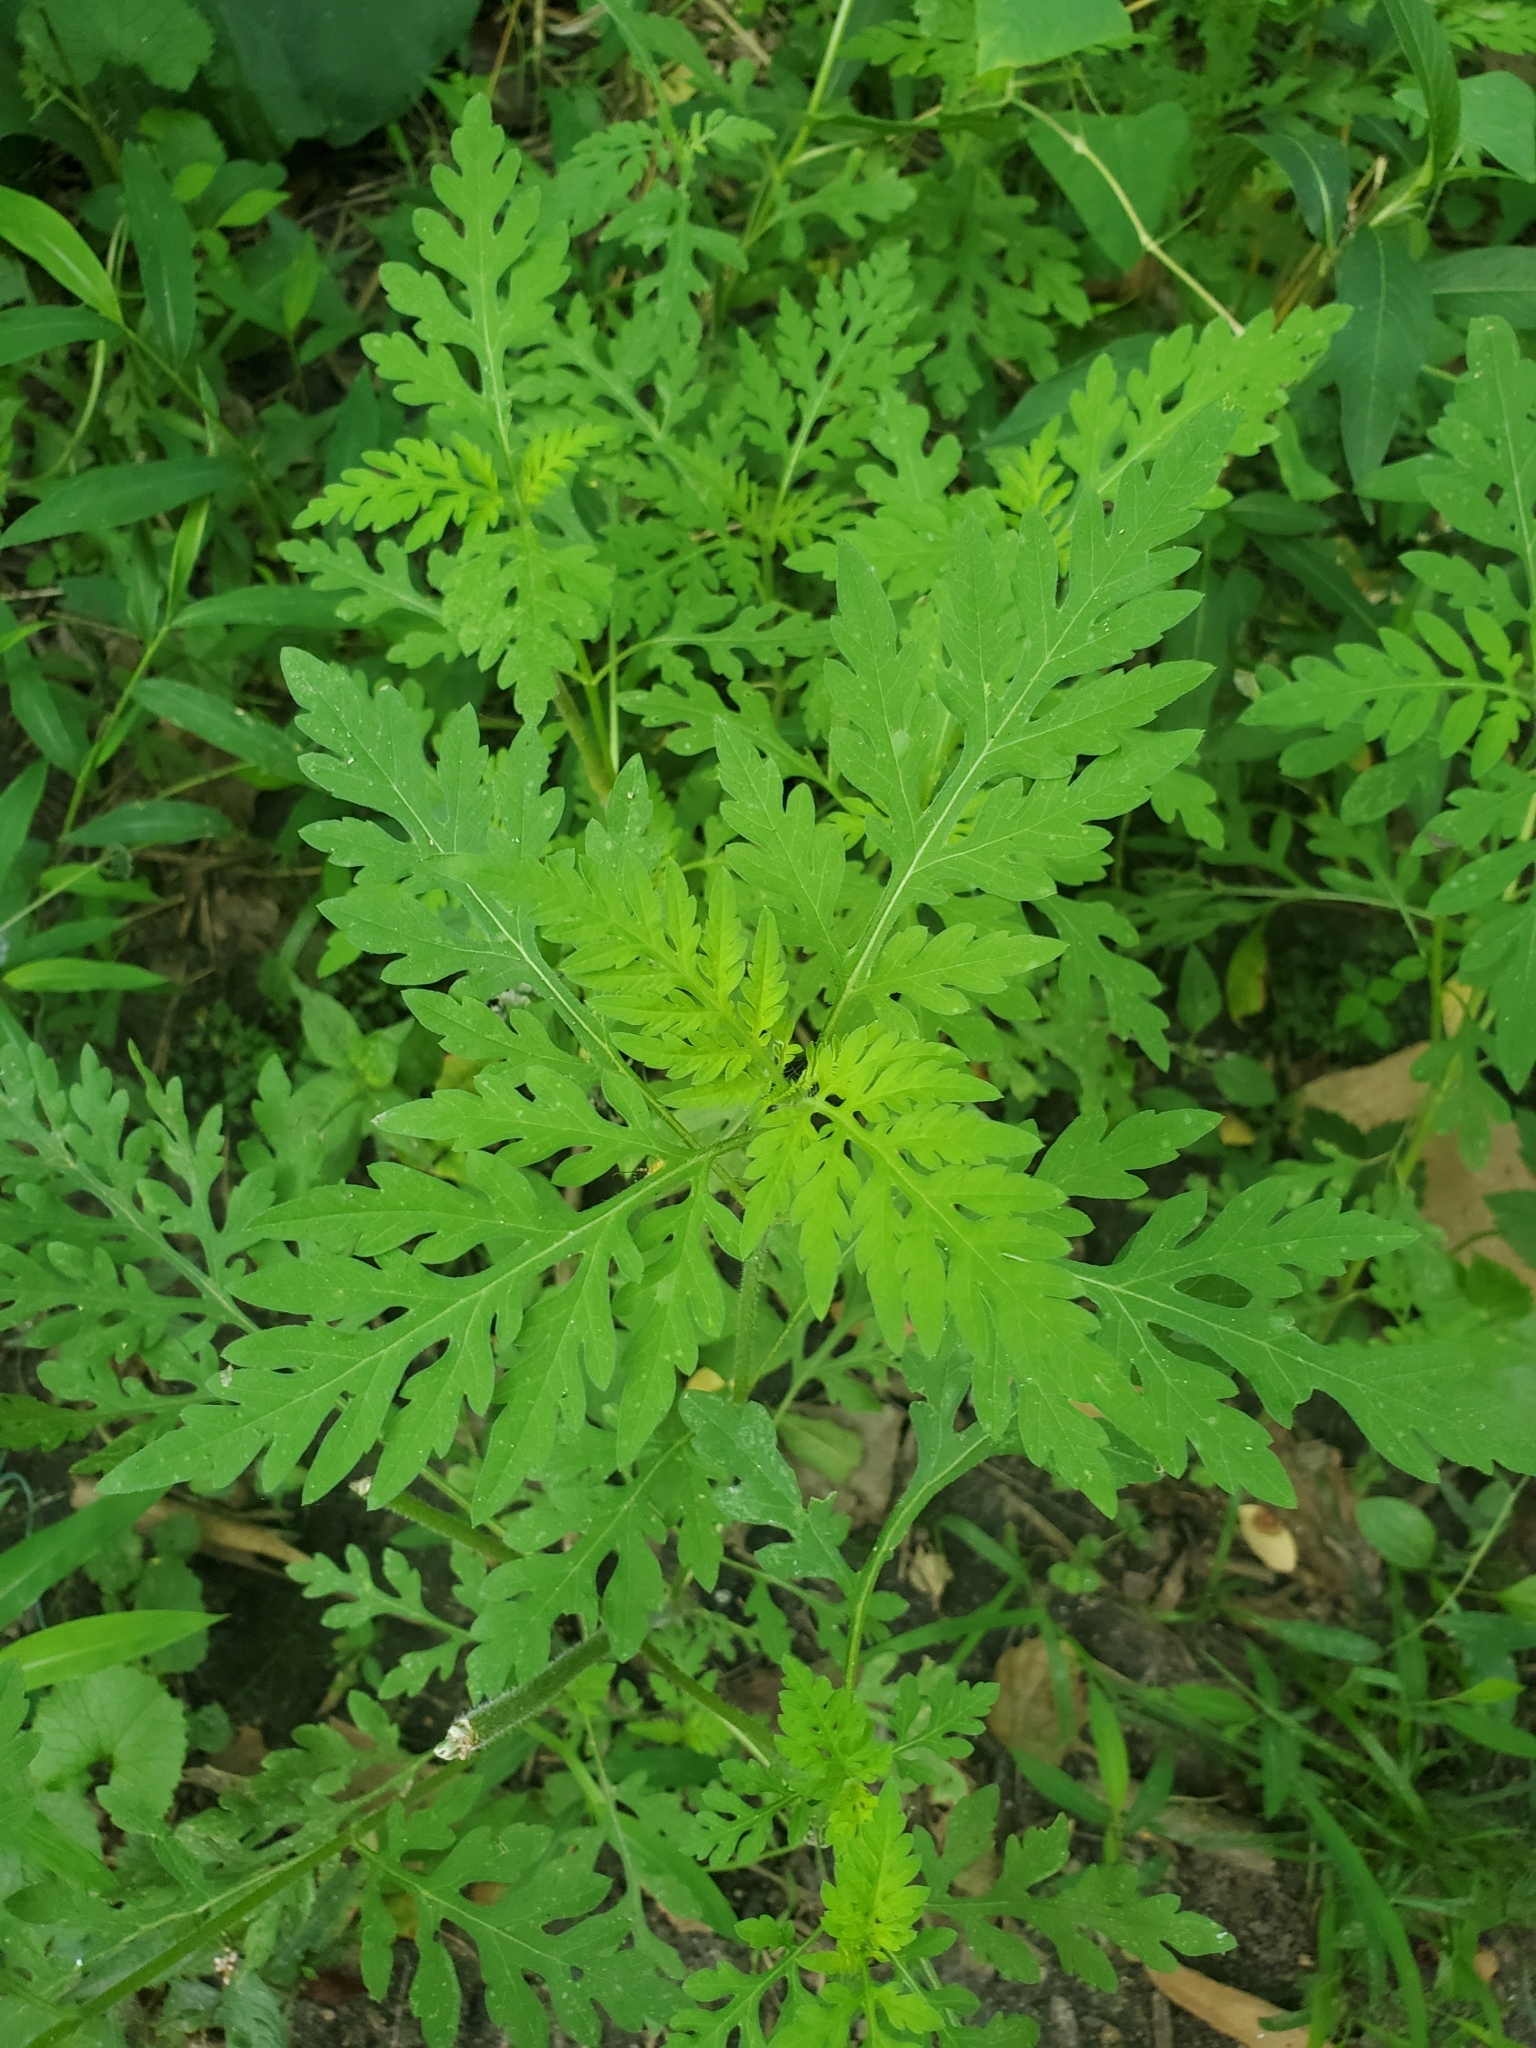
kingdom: Plantae
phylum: Tracheophyta
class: Magnoliopsida
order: Asterales
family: Asteraceae
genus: Ambrosia
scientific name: Ambrosia artemisiifolia
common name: Annual ragweed
